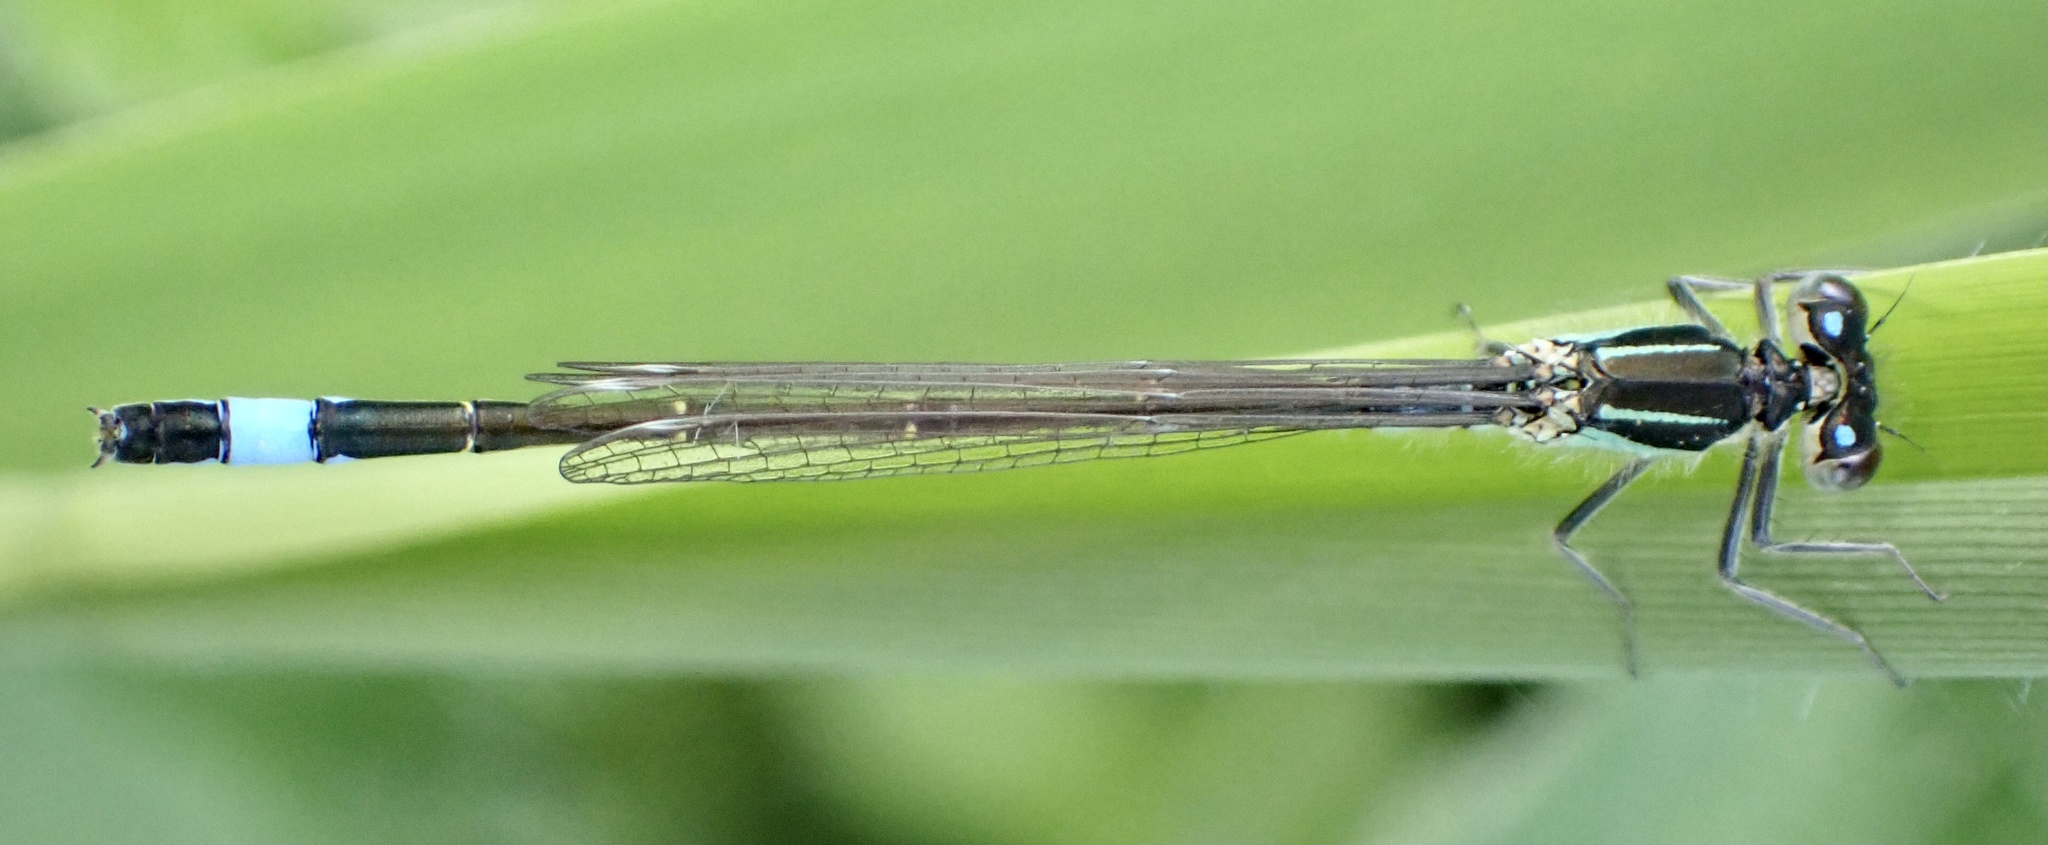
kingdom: Animalia
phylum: Arthropoda
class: Insecta
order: Odonata
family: Coenagrionidae
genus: Ischnura
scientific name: Ischnura elegans
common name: Blue-tailed damselfly
